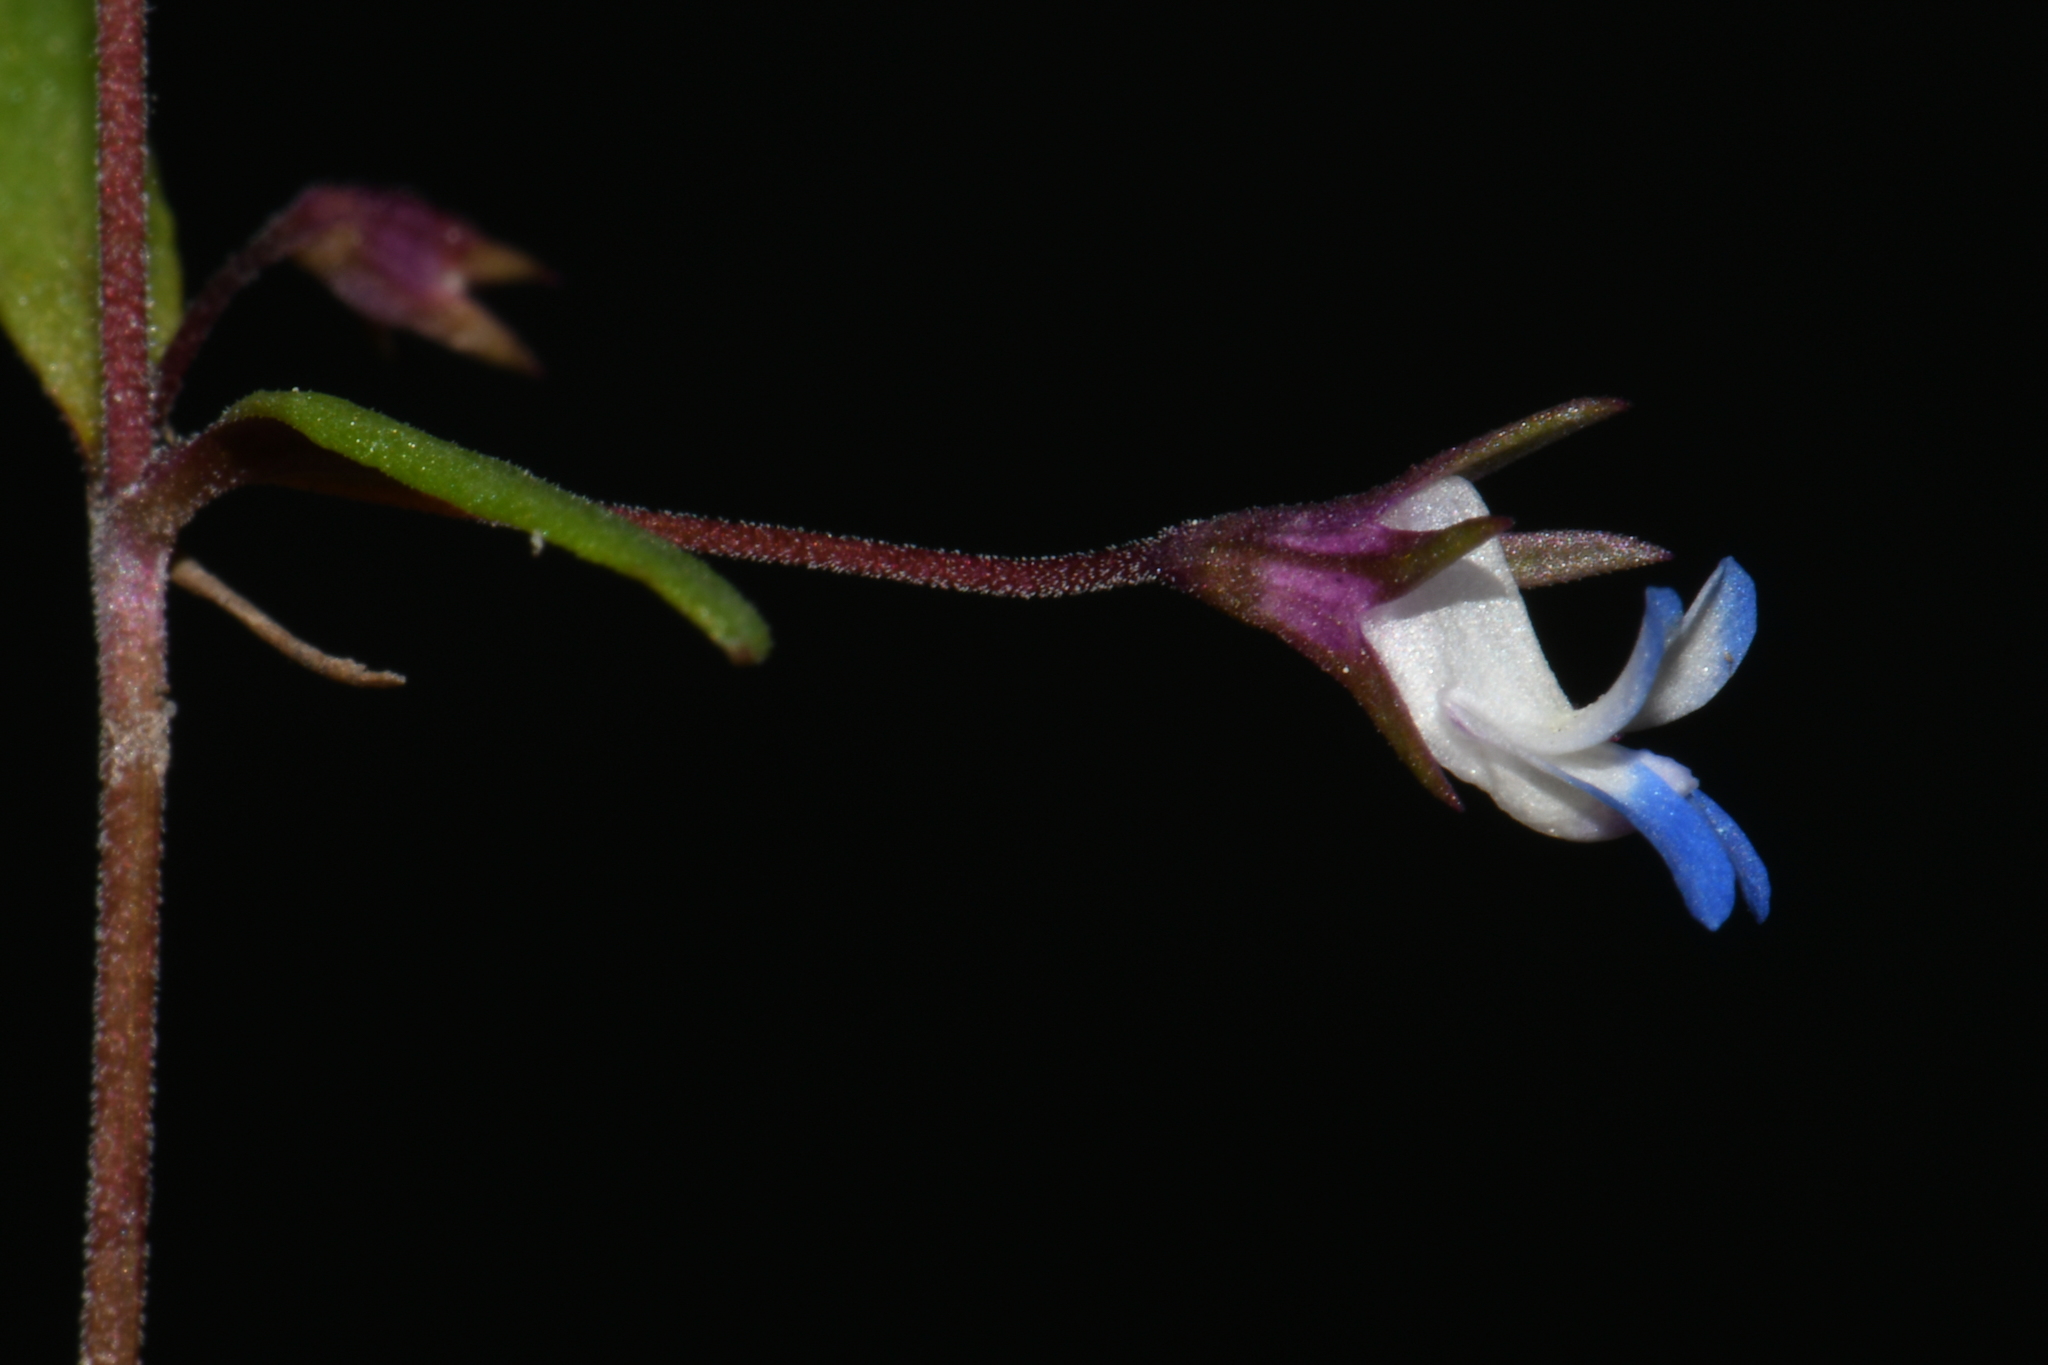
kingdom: Plantae
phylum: Tracheophyta
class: Magnoliopsida
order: Lamiales
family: Plantaginaceae
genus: Collinsia
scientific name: Collinsia parviflora
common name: Blue-lips
